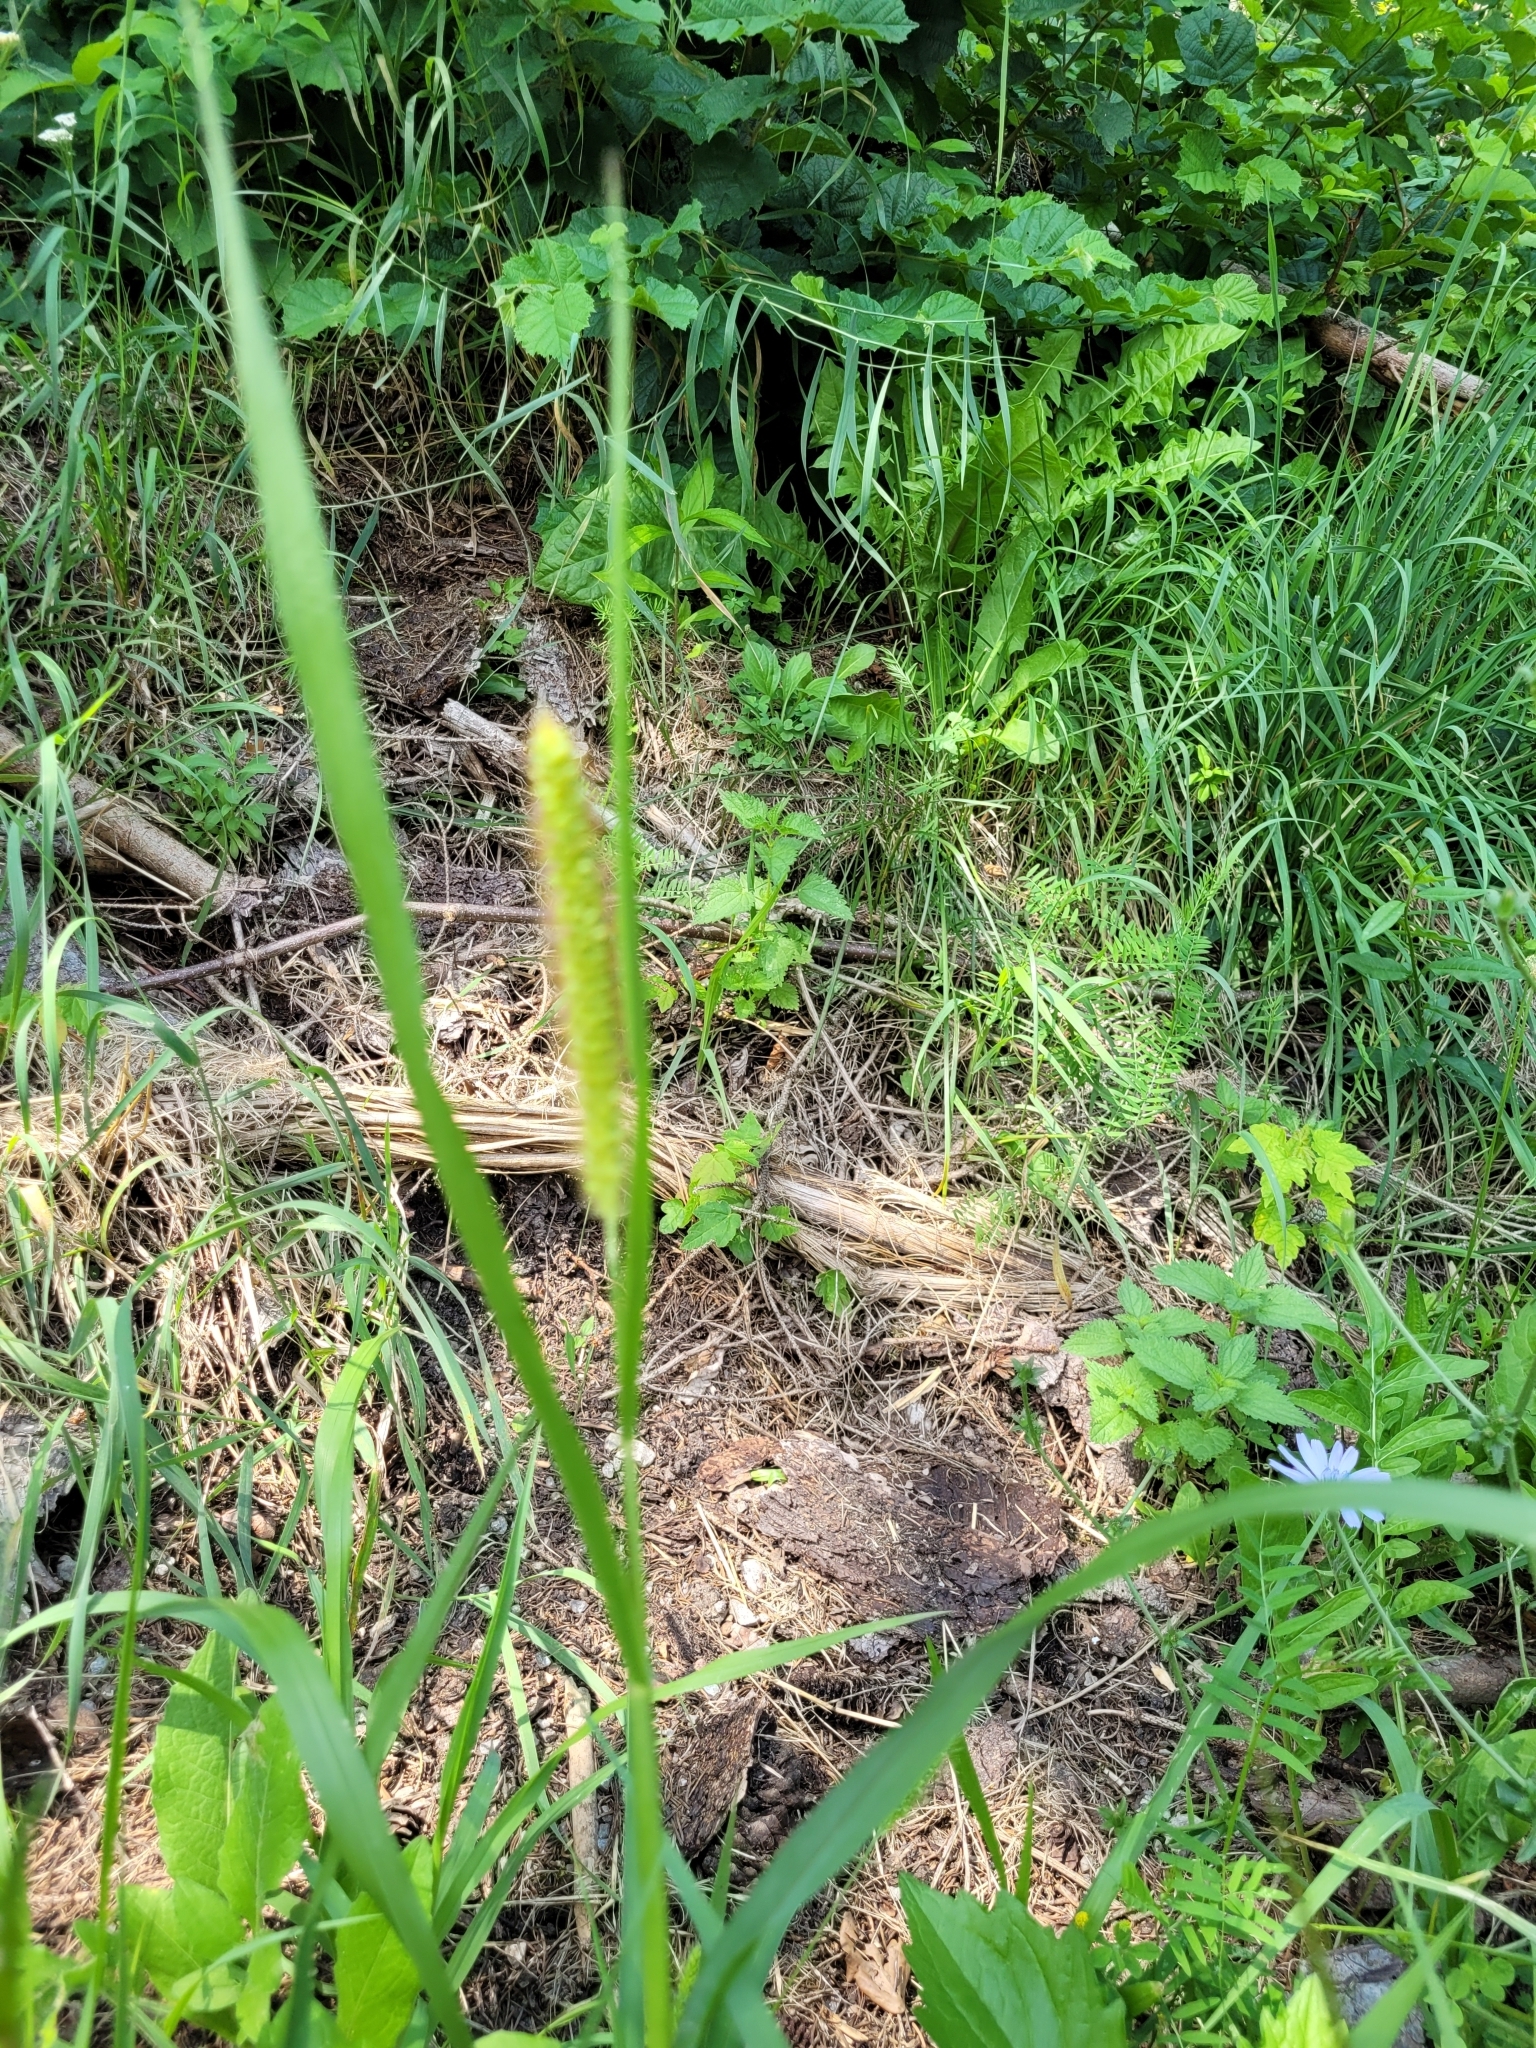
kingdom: Plantae
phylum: Tracheophyta
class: Liliopsida
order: Poales
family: Poaceae
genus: Setaria
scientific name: Setaria pumila
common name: Yellow bristle-grass
